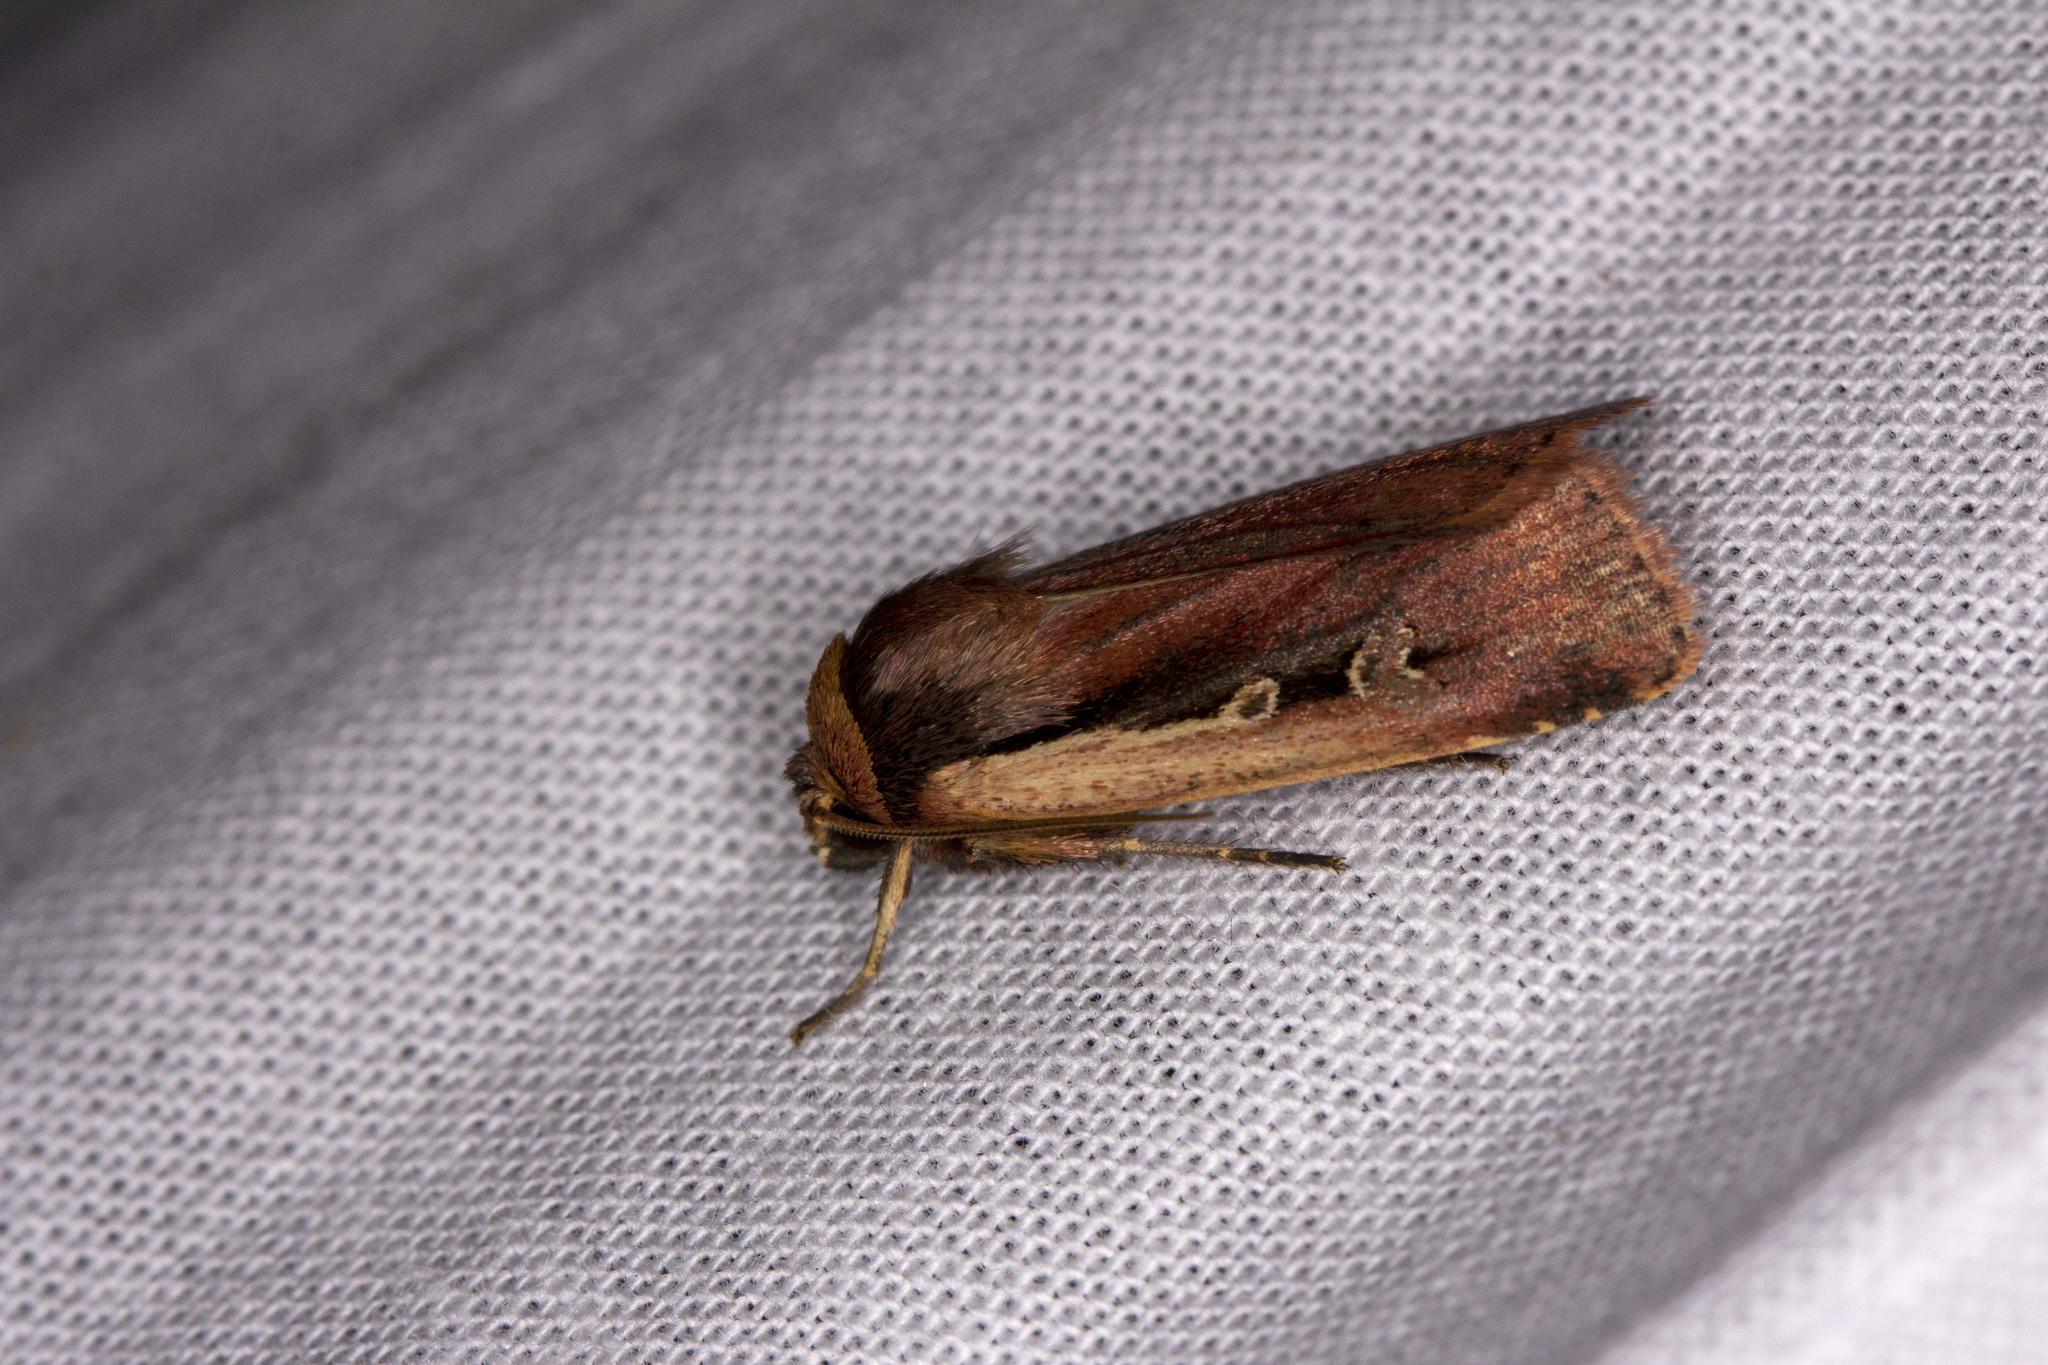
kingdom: Animalia
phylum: Arthropoda
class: Insecta
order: Lepidoptera
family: Noctuidae
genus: Ochropleura
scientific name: Ochropleura plecta
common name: Flame shoulder
